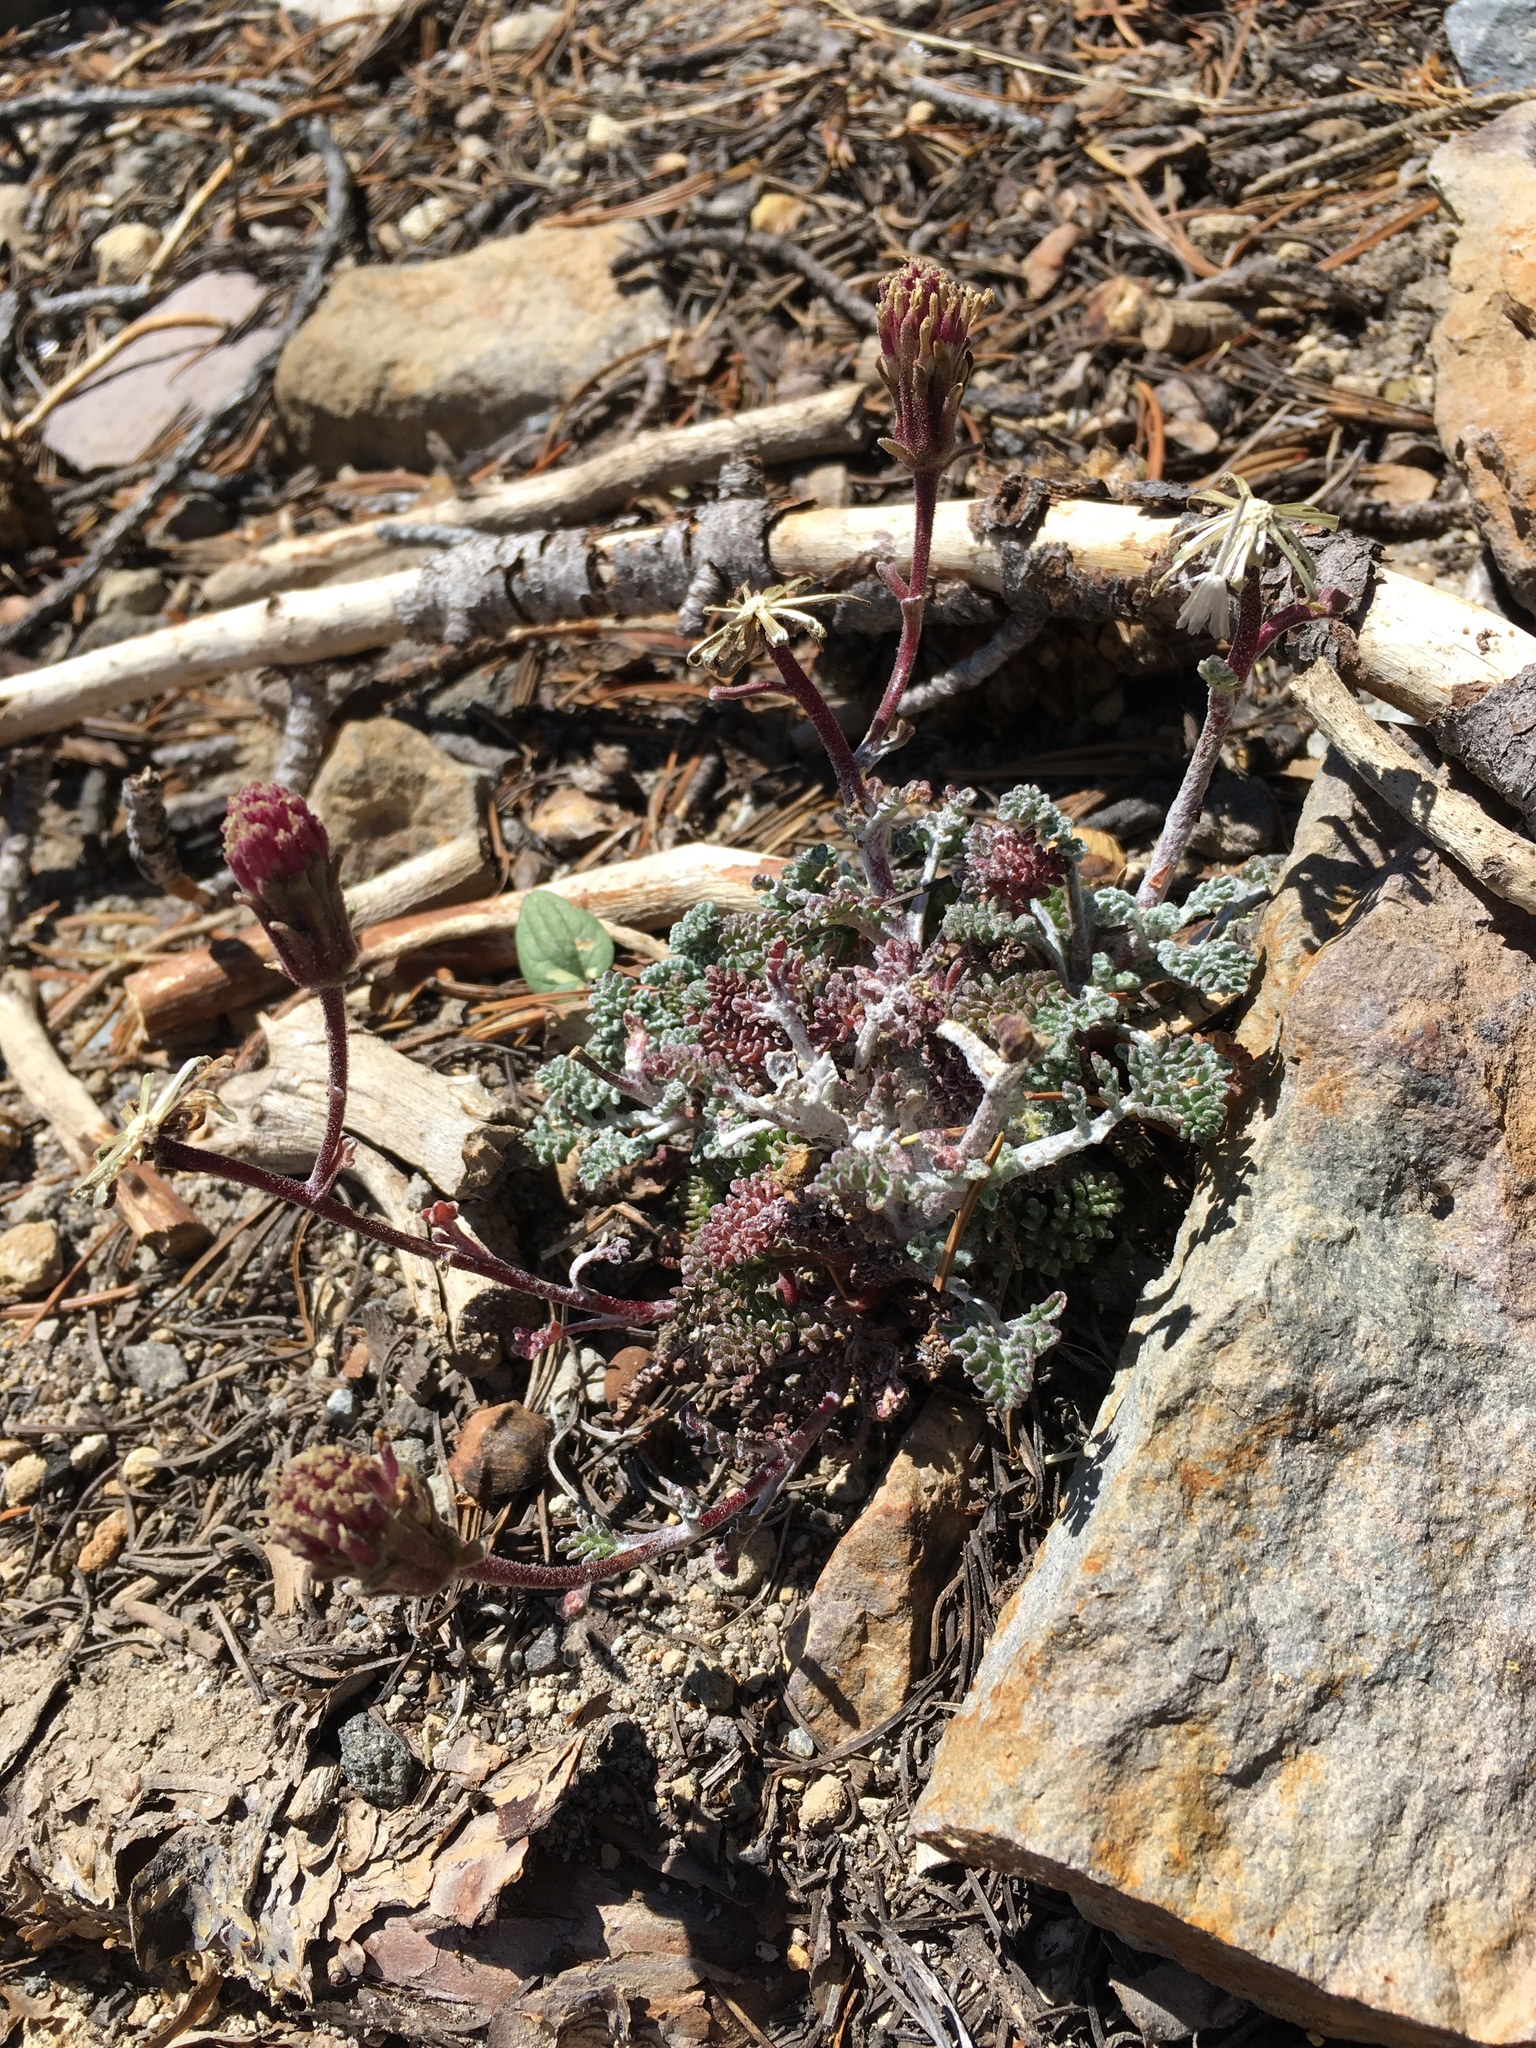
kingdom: Plantae
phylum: Tracheophyta
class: Magnoliopsida
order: Asterales
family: Asteraceae
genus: Chaenactis
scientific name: Chaenactis douglasii
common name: Hoary pincushion
